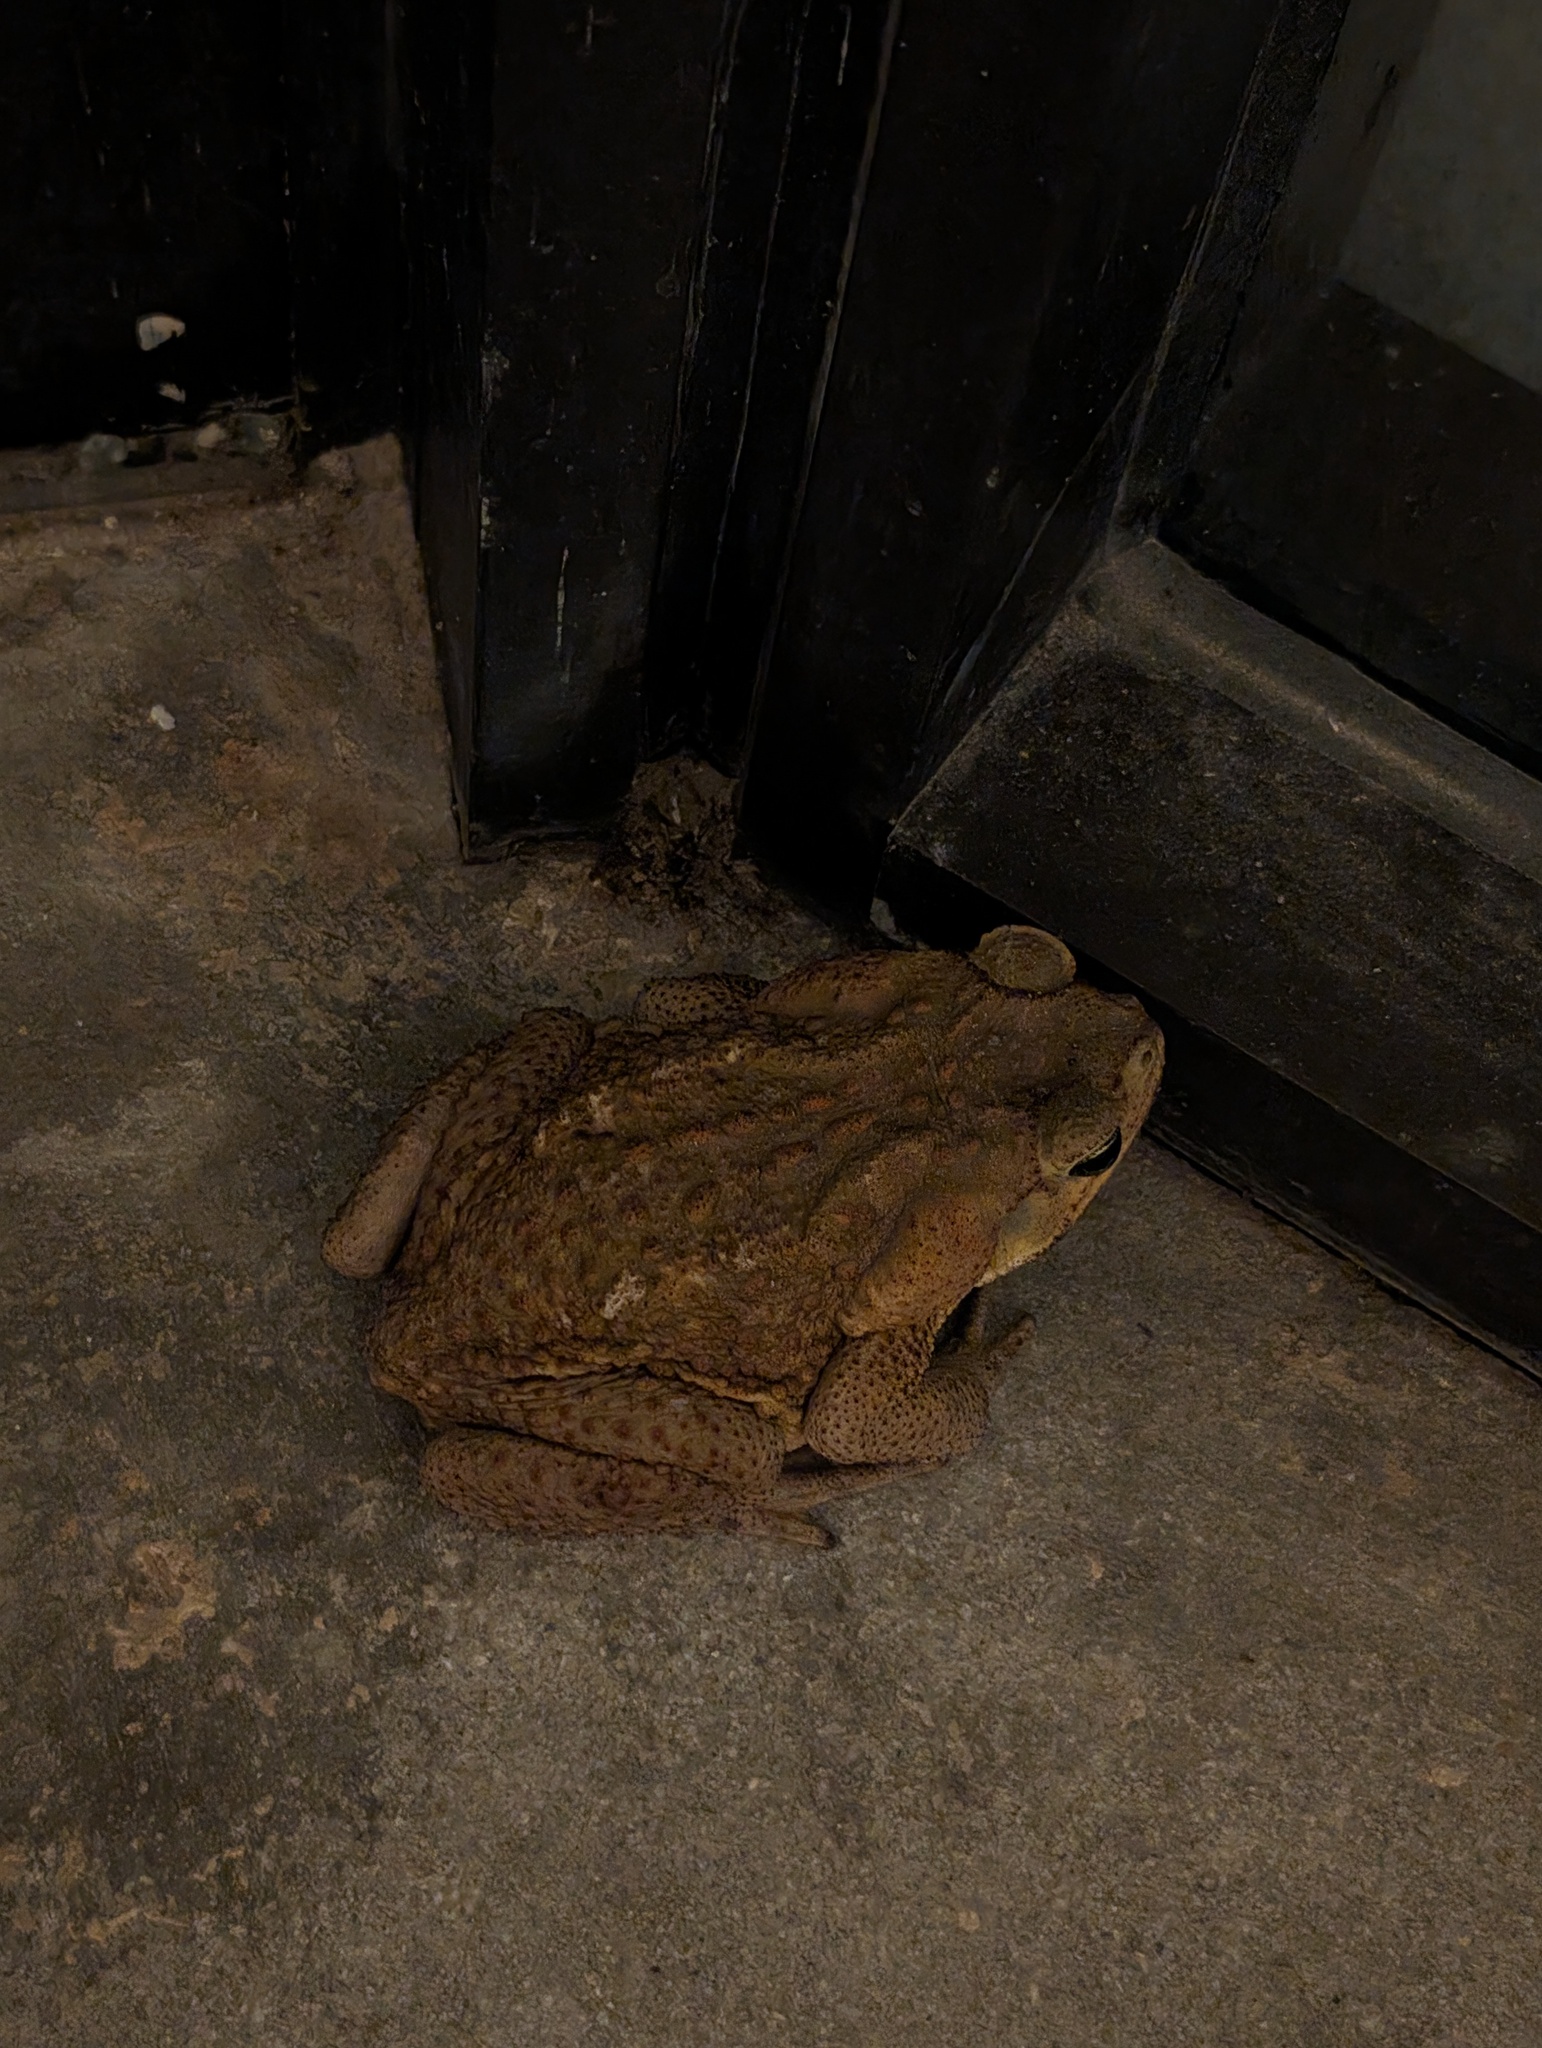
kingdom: Animalia
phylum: Chordata
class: Amphibia
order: Anura
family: Bufonidae
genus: Rhinella
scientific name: Rhinella marina
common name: Cane toad
